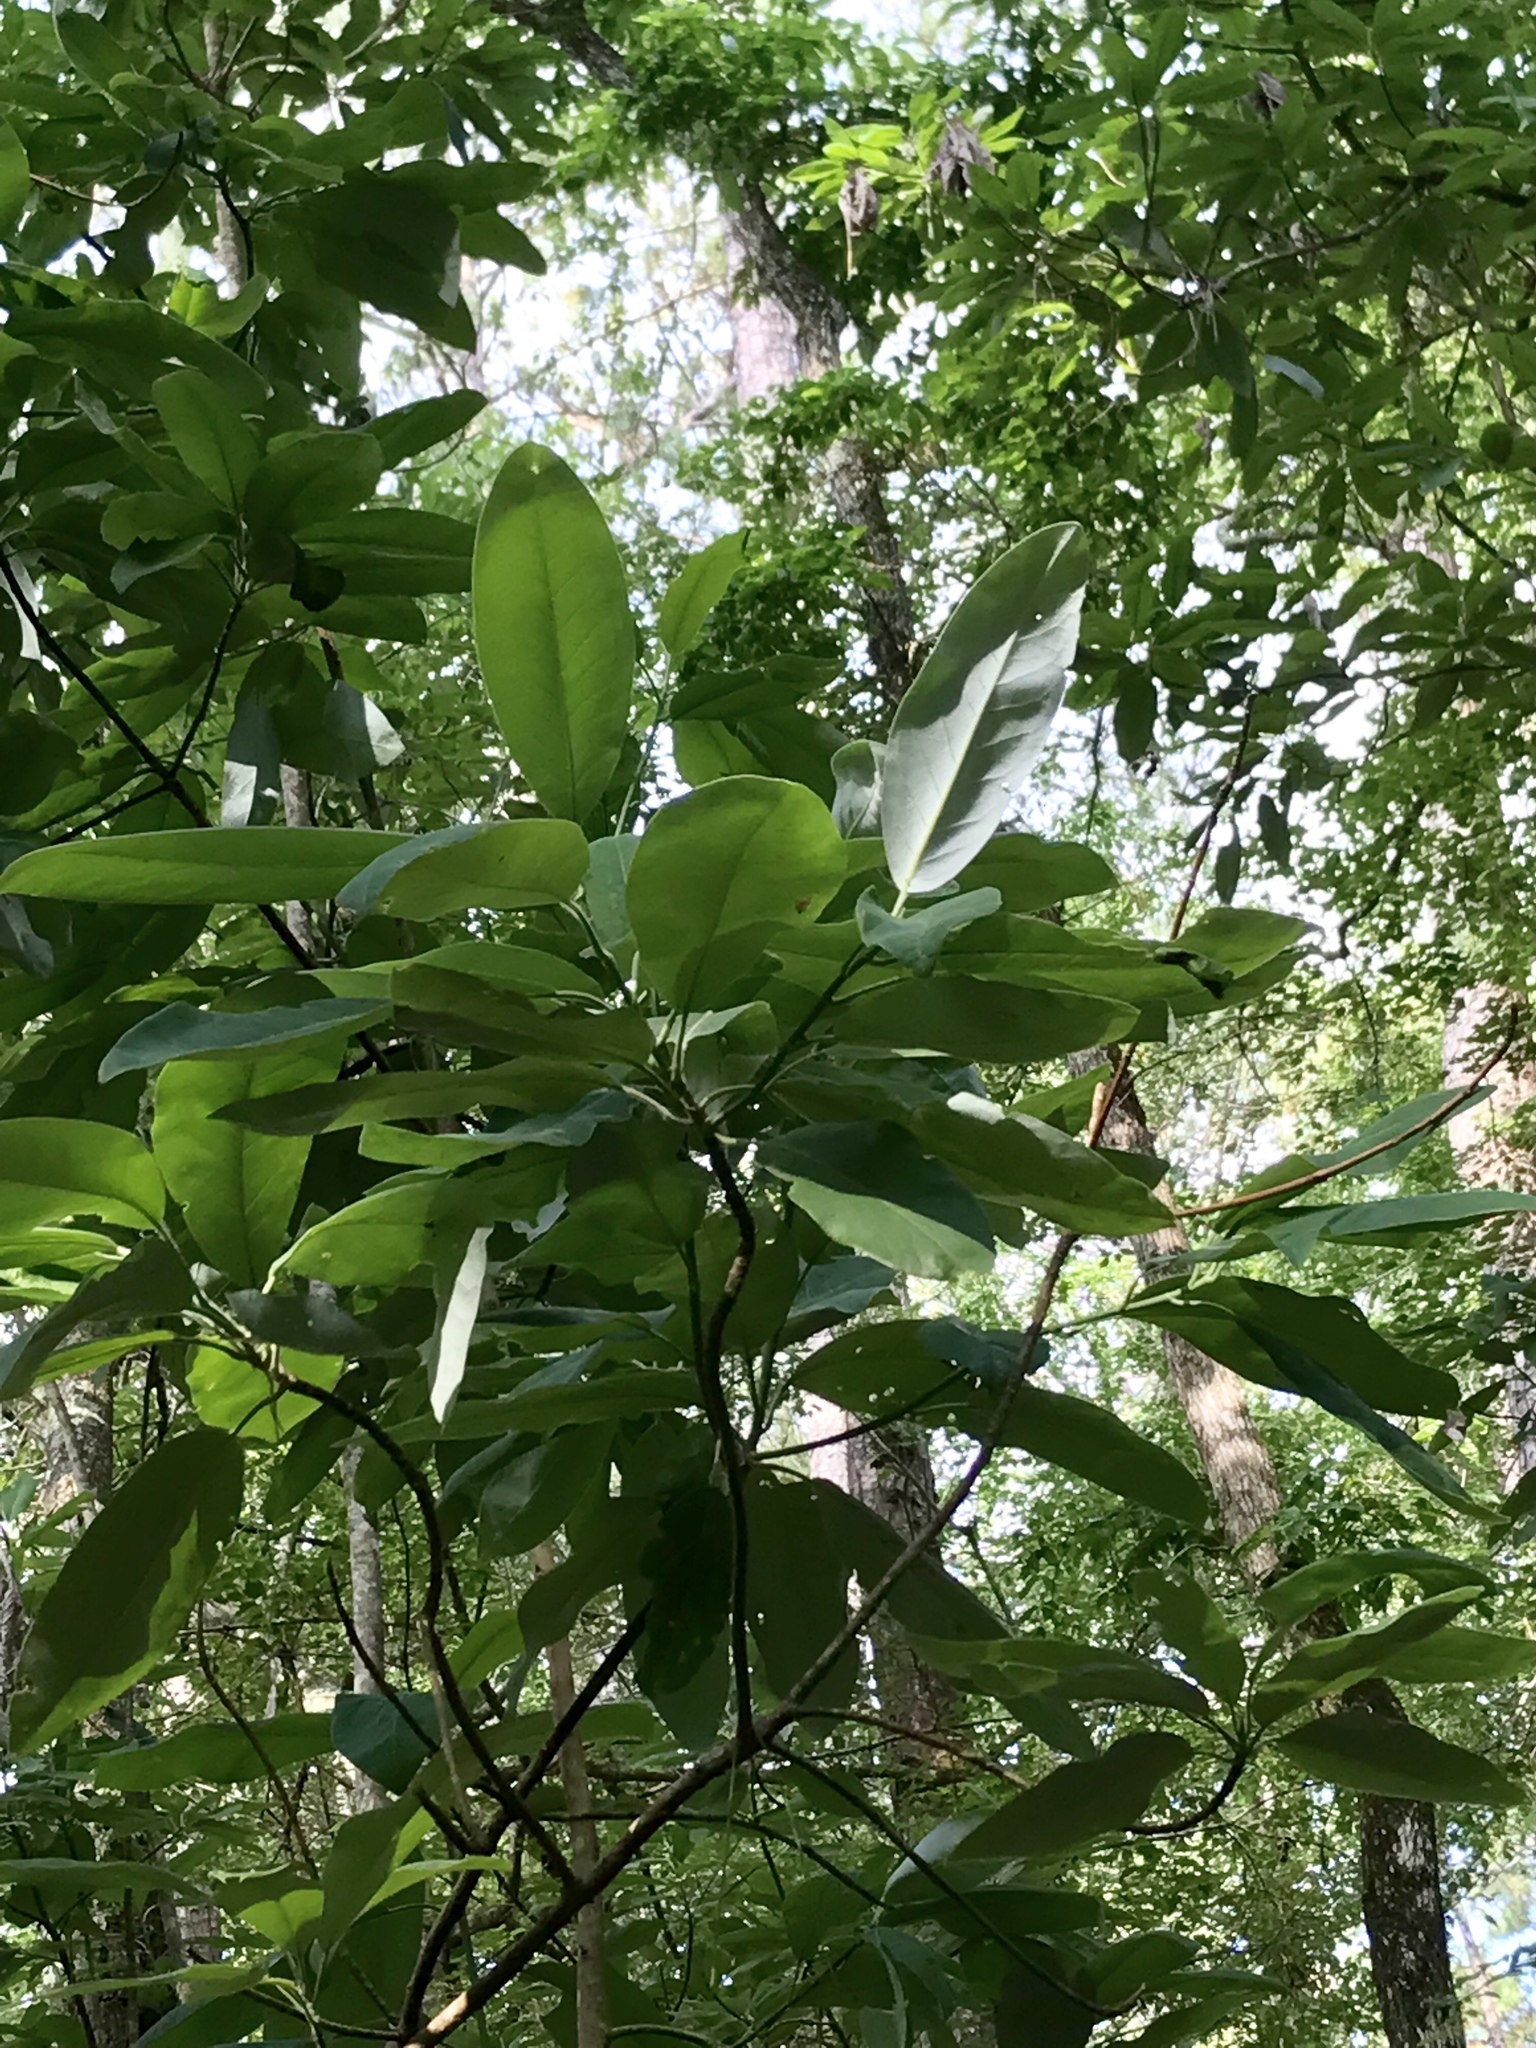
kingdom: Plantae
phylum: Tracheophyta
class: Magnoliopsida
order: Magnoliales
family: Magnoliaceae
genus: Magnolia
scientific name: Magnolia virginiana
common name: Swamp bay
